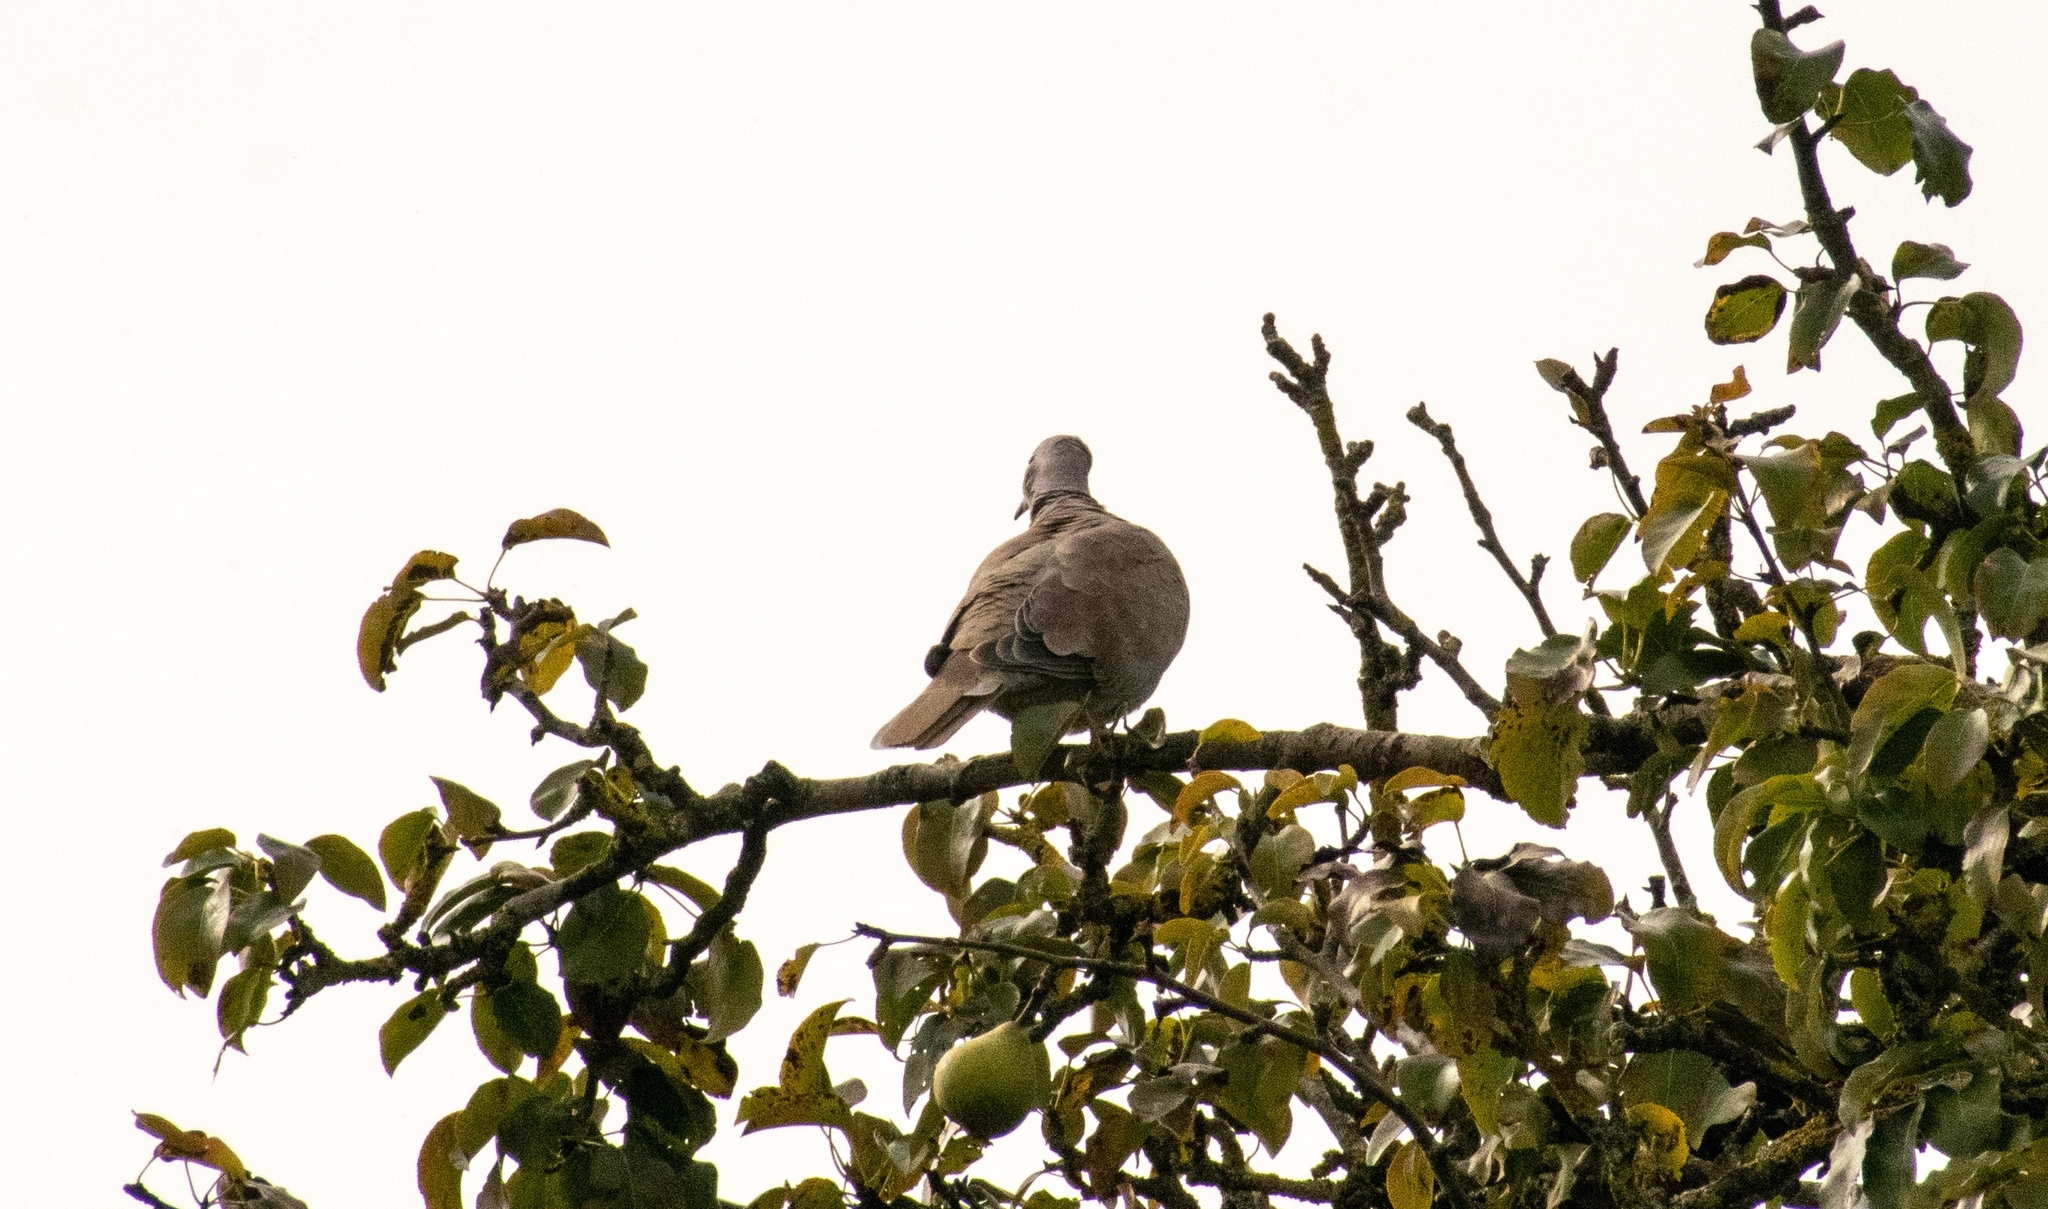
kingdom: Animalia
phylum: Chordata
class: Aves
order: Columbiformes
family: Columbidae
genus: Streptopelia
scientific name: Streptopelia decaocto
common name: Eurasian collared dove
